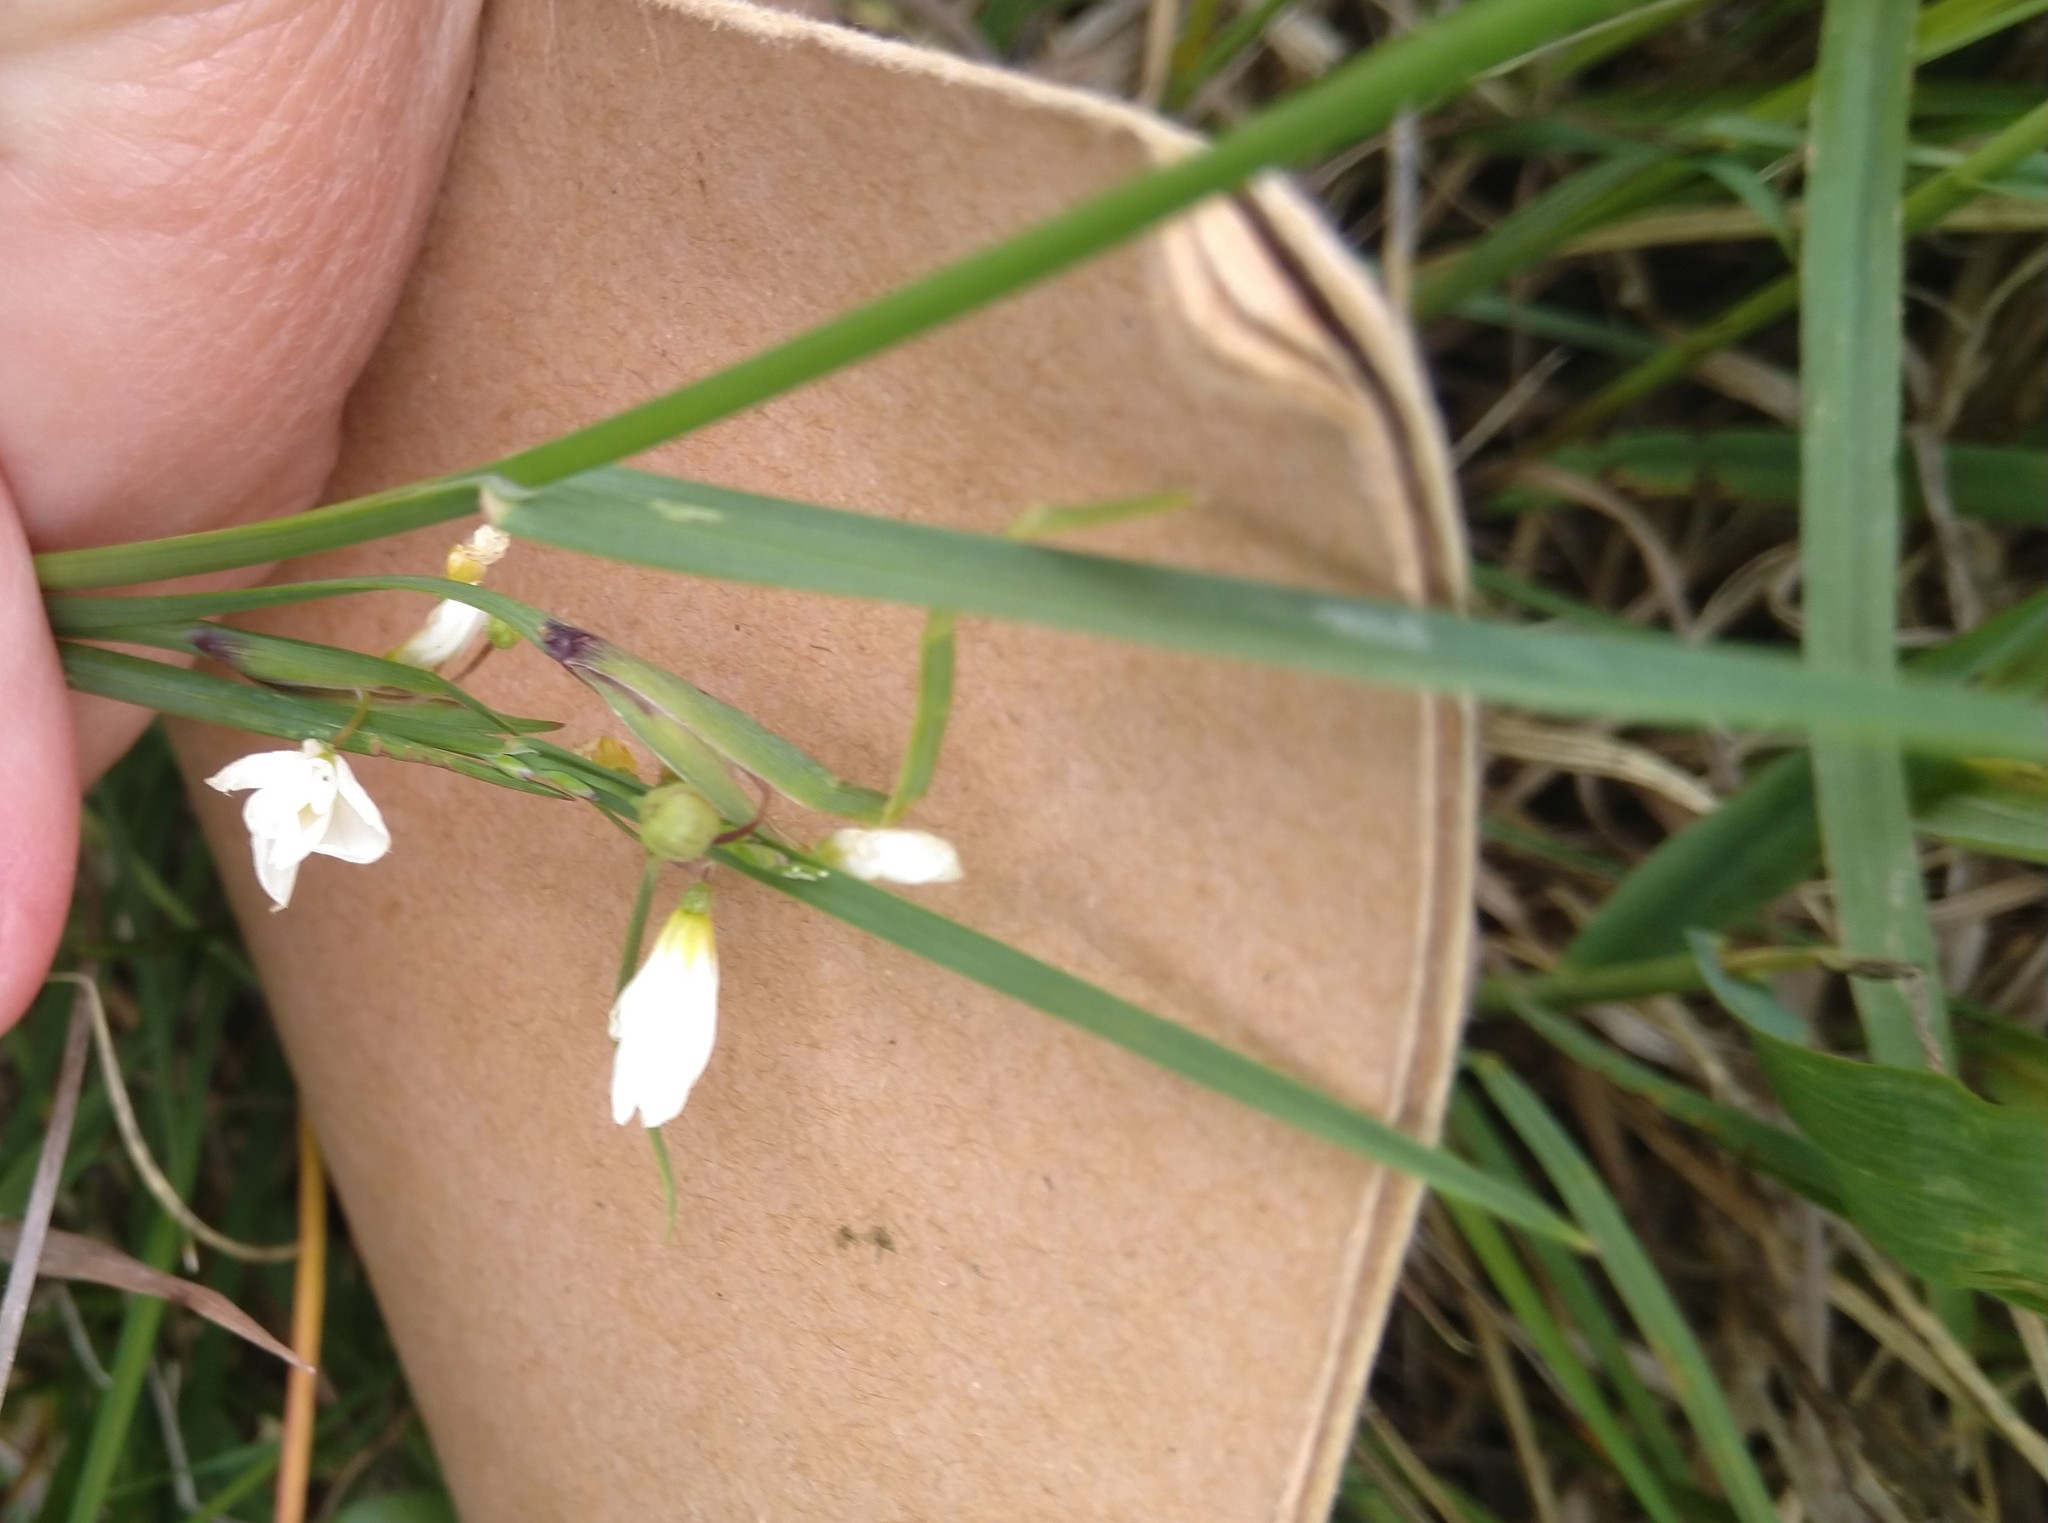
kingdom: Plantae
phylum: Tracheophyta
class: Liliopsida
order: Asparagales
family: Iridaceae
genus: Sisyrinchium
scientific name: Sisyrinchium campestre
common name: Prairie blue-eyed-grass
